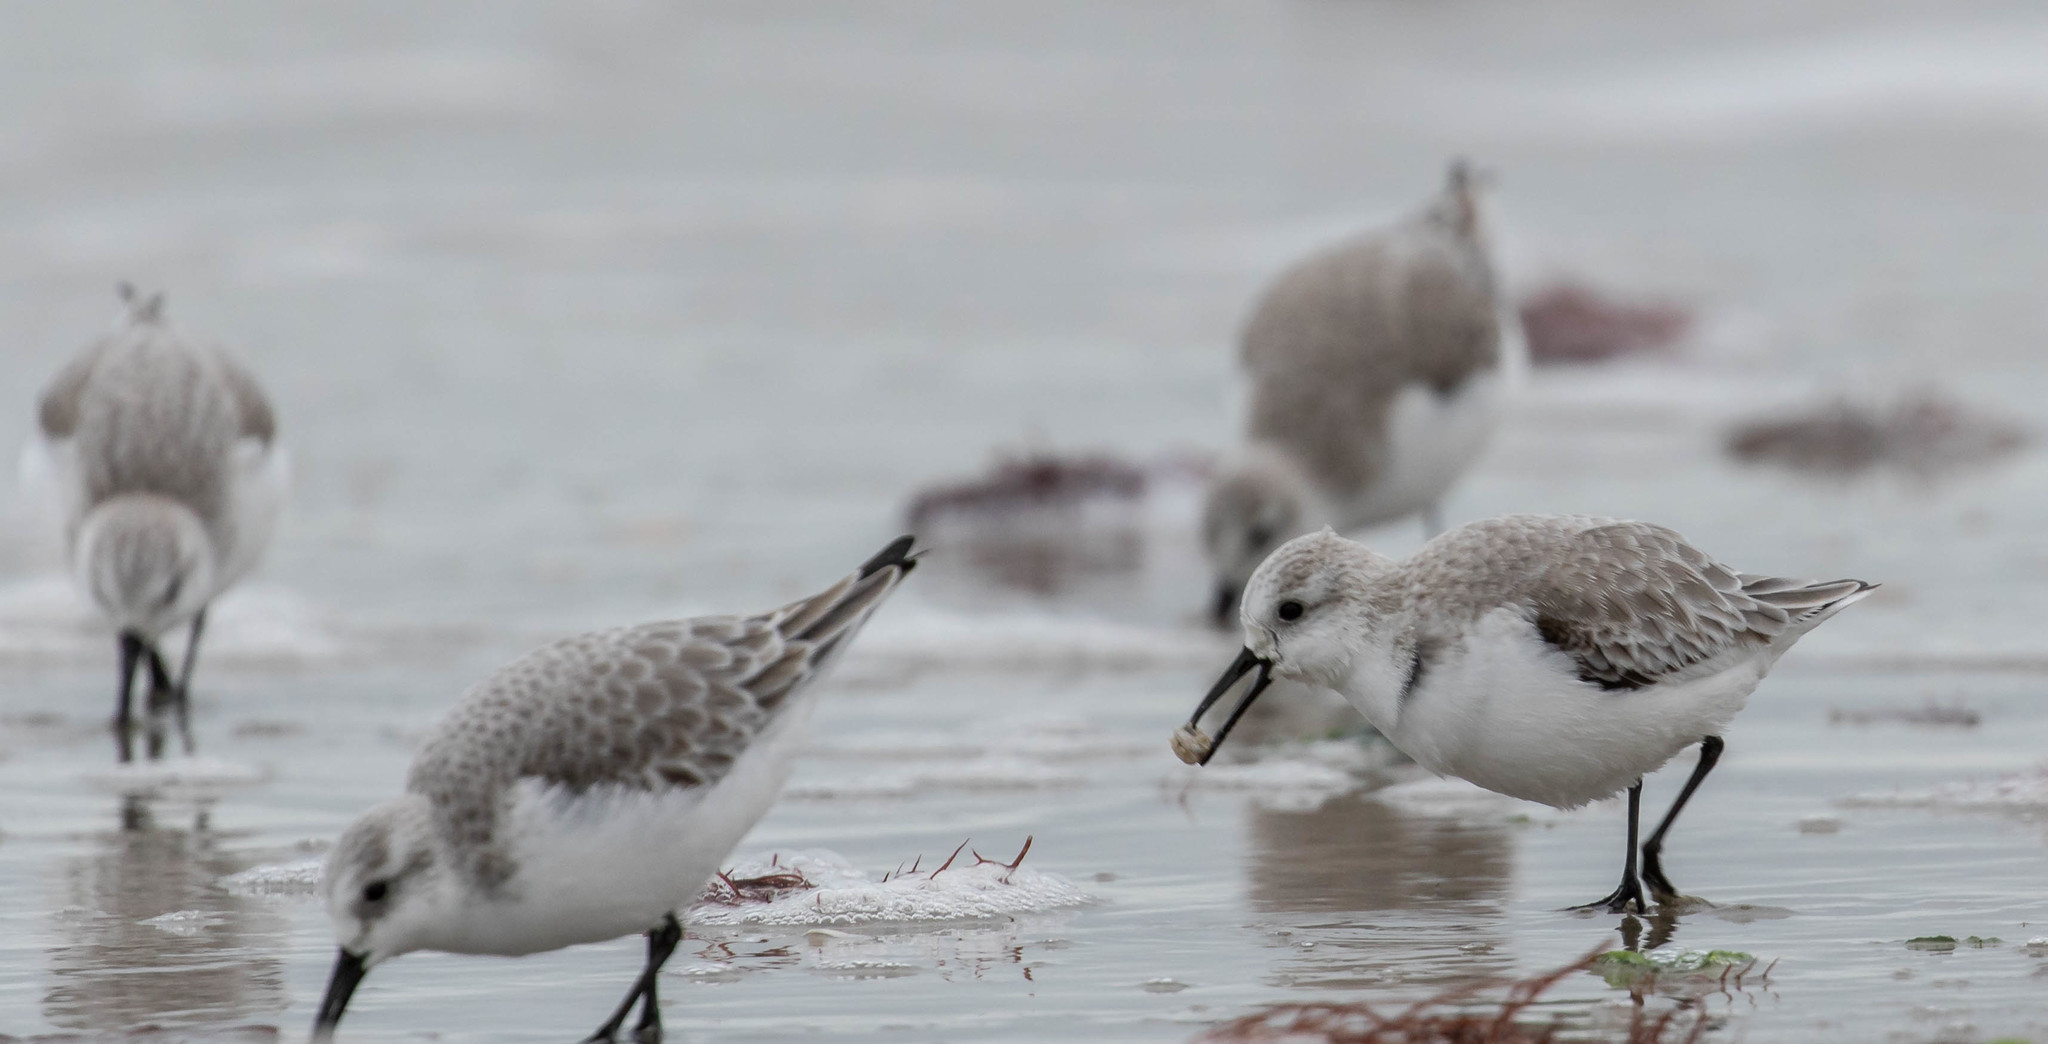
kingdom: Animalia
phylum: Chordata
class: Aves
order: Charadriiformes
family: Scolopacidae
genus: Calidris
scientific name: Calidris alba
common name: Sanderling
